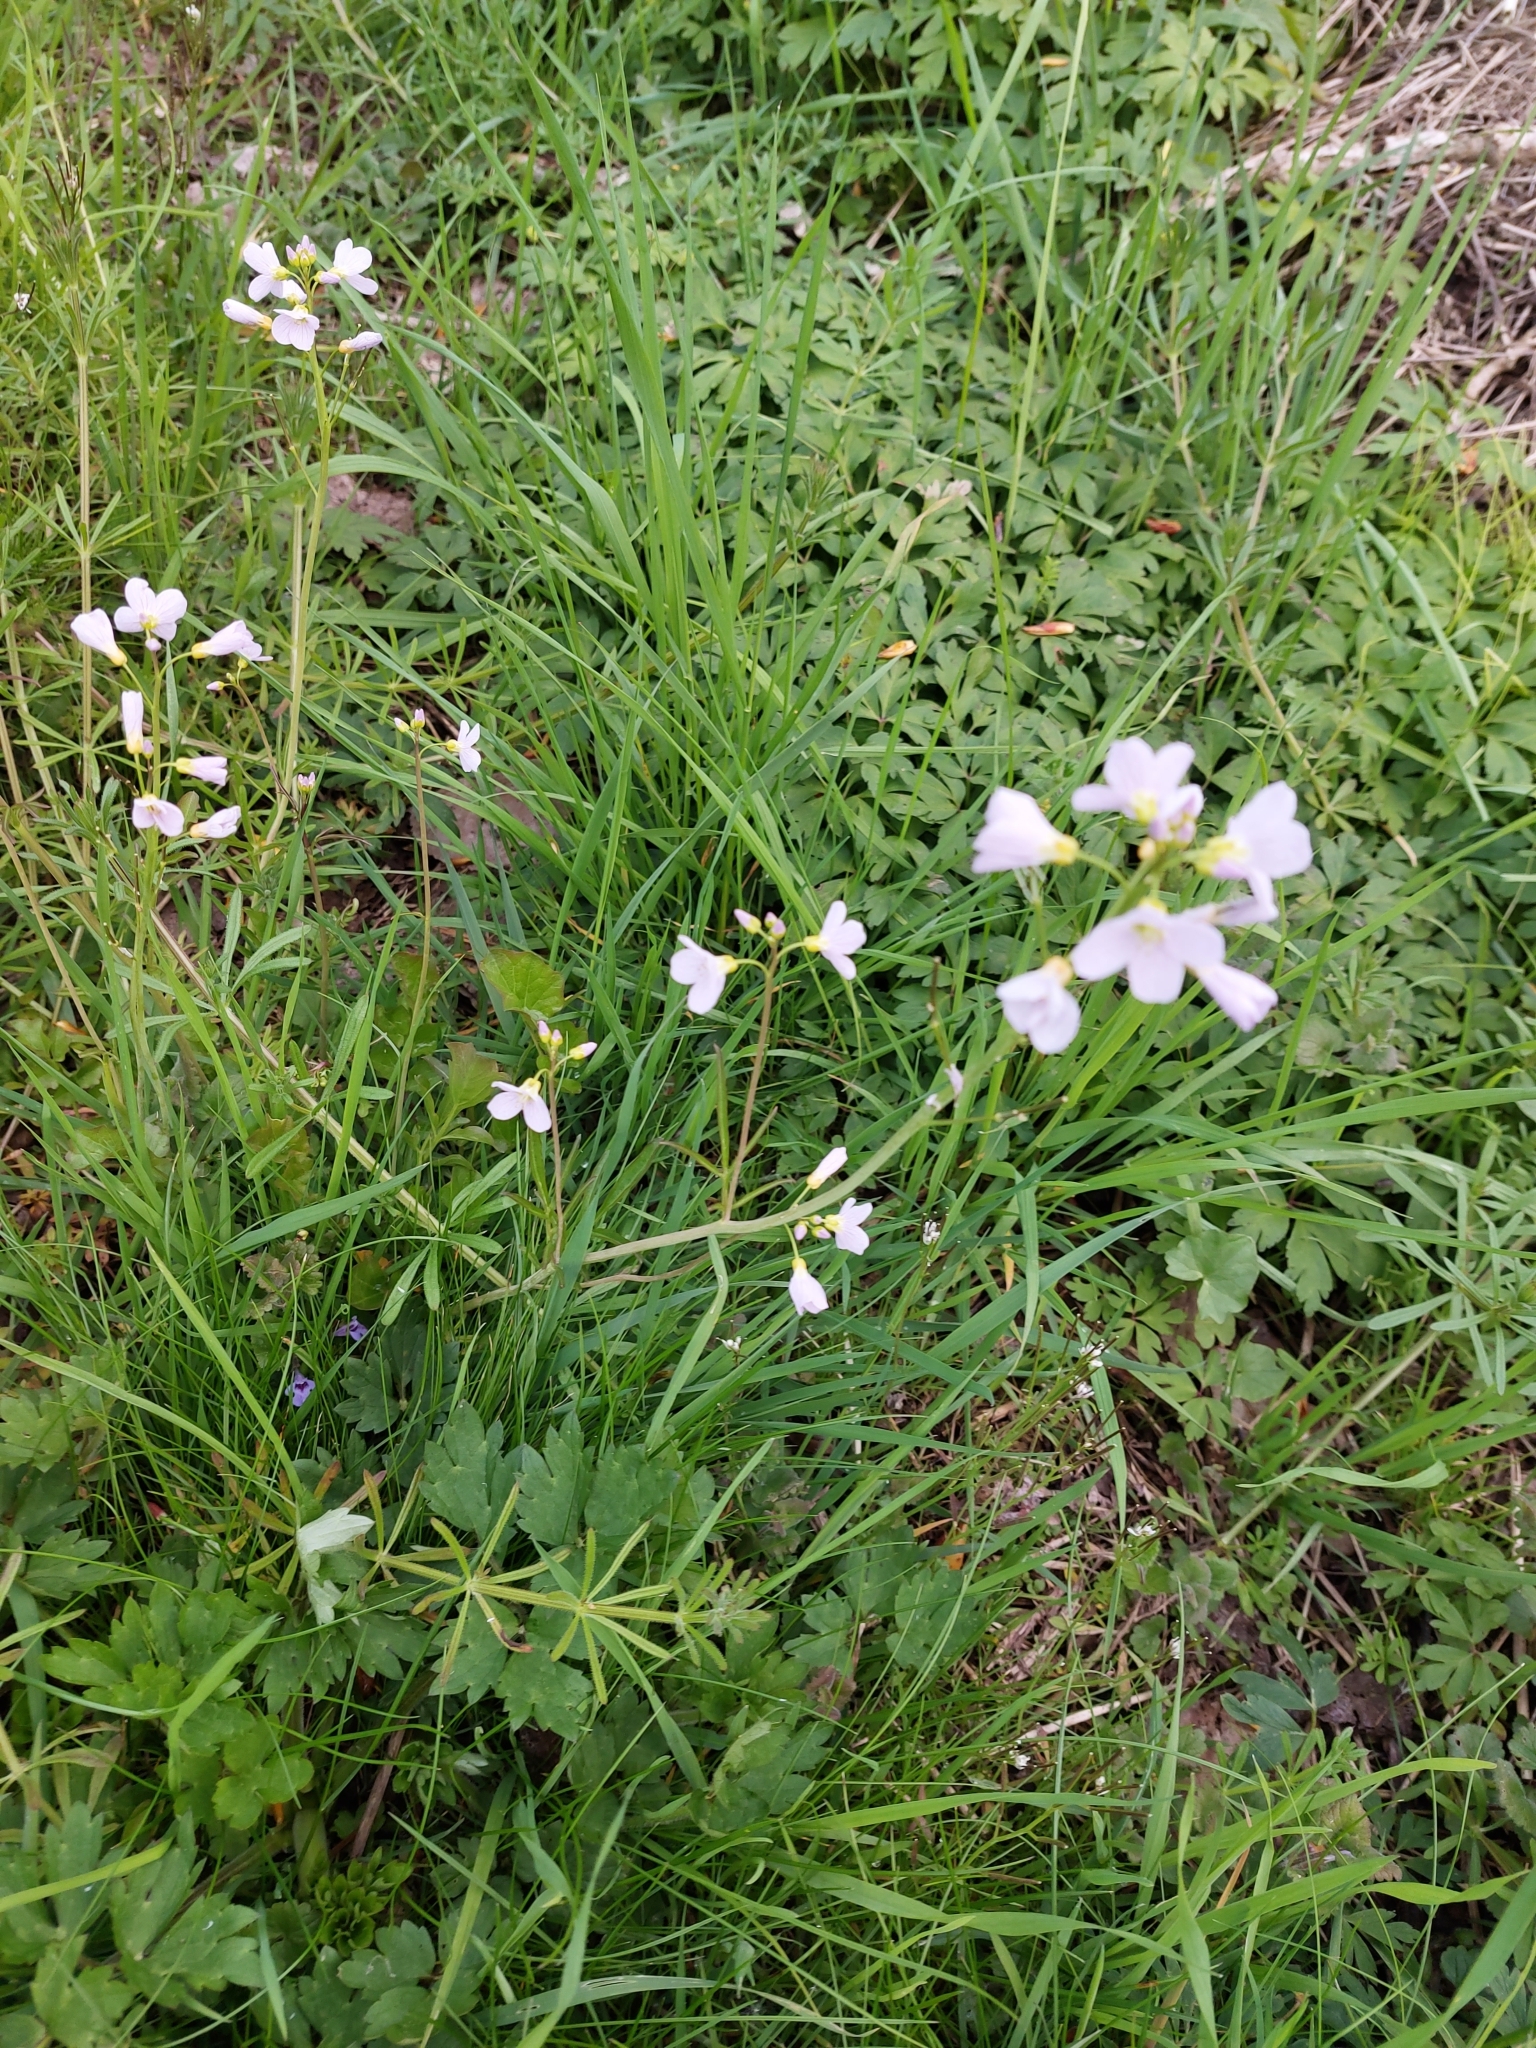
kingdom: Plantae
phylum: Tracheophyta
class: Magnoliopsida
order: Brassicales
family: Brassicaceae
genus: Cardamine
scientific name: Cardamine pratensis
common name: Cuckoo flower
